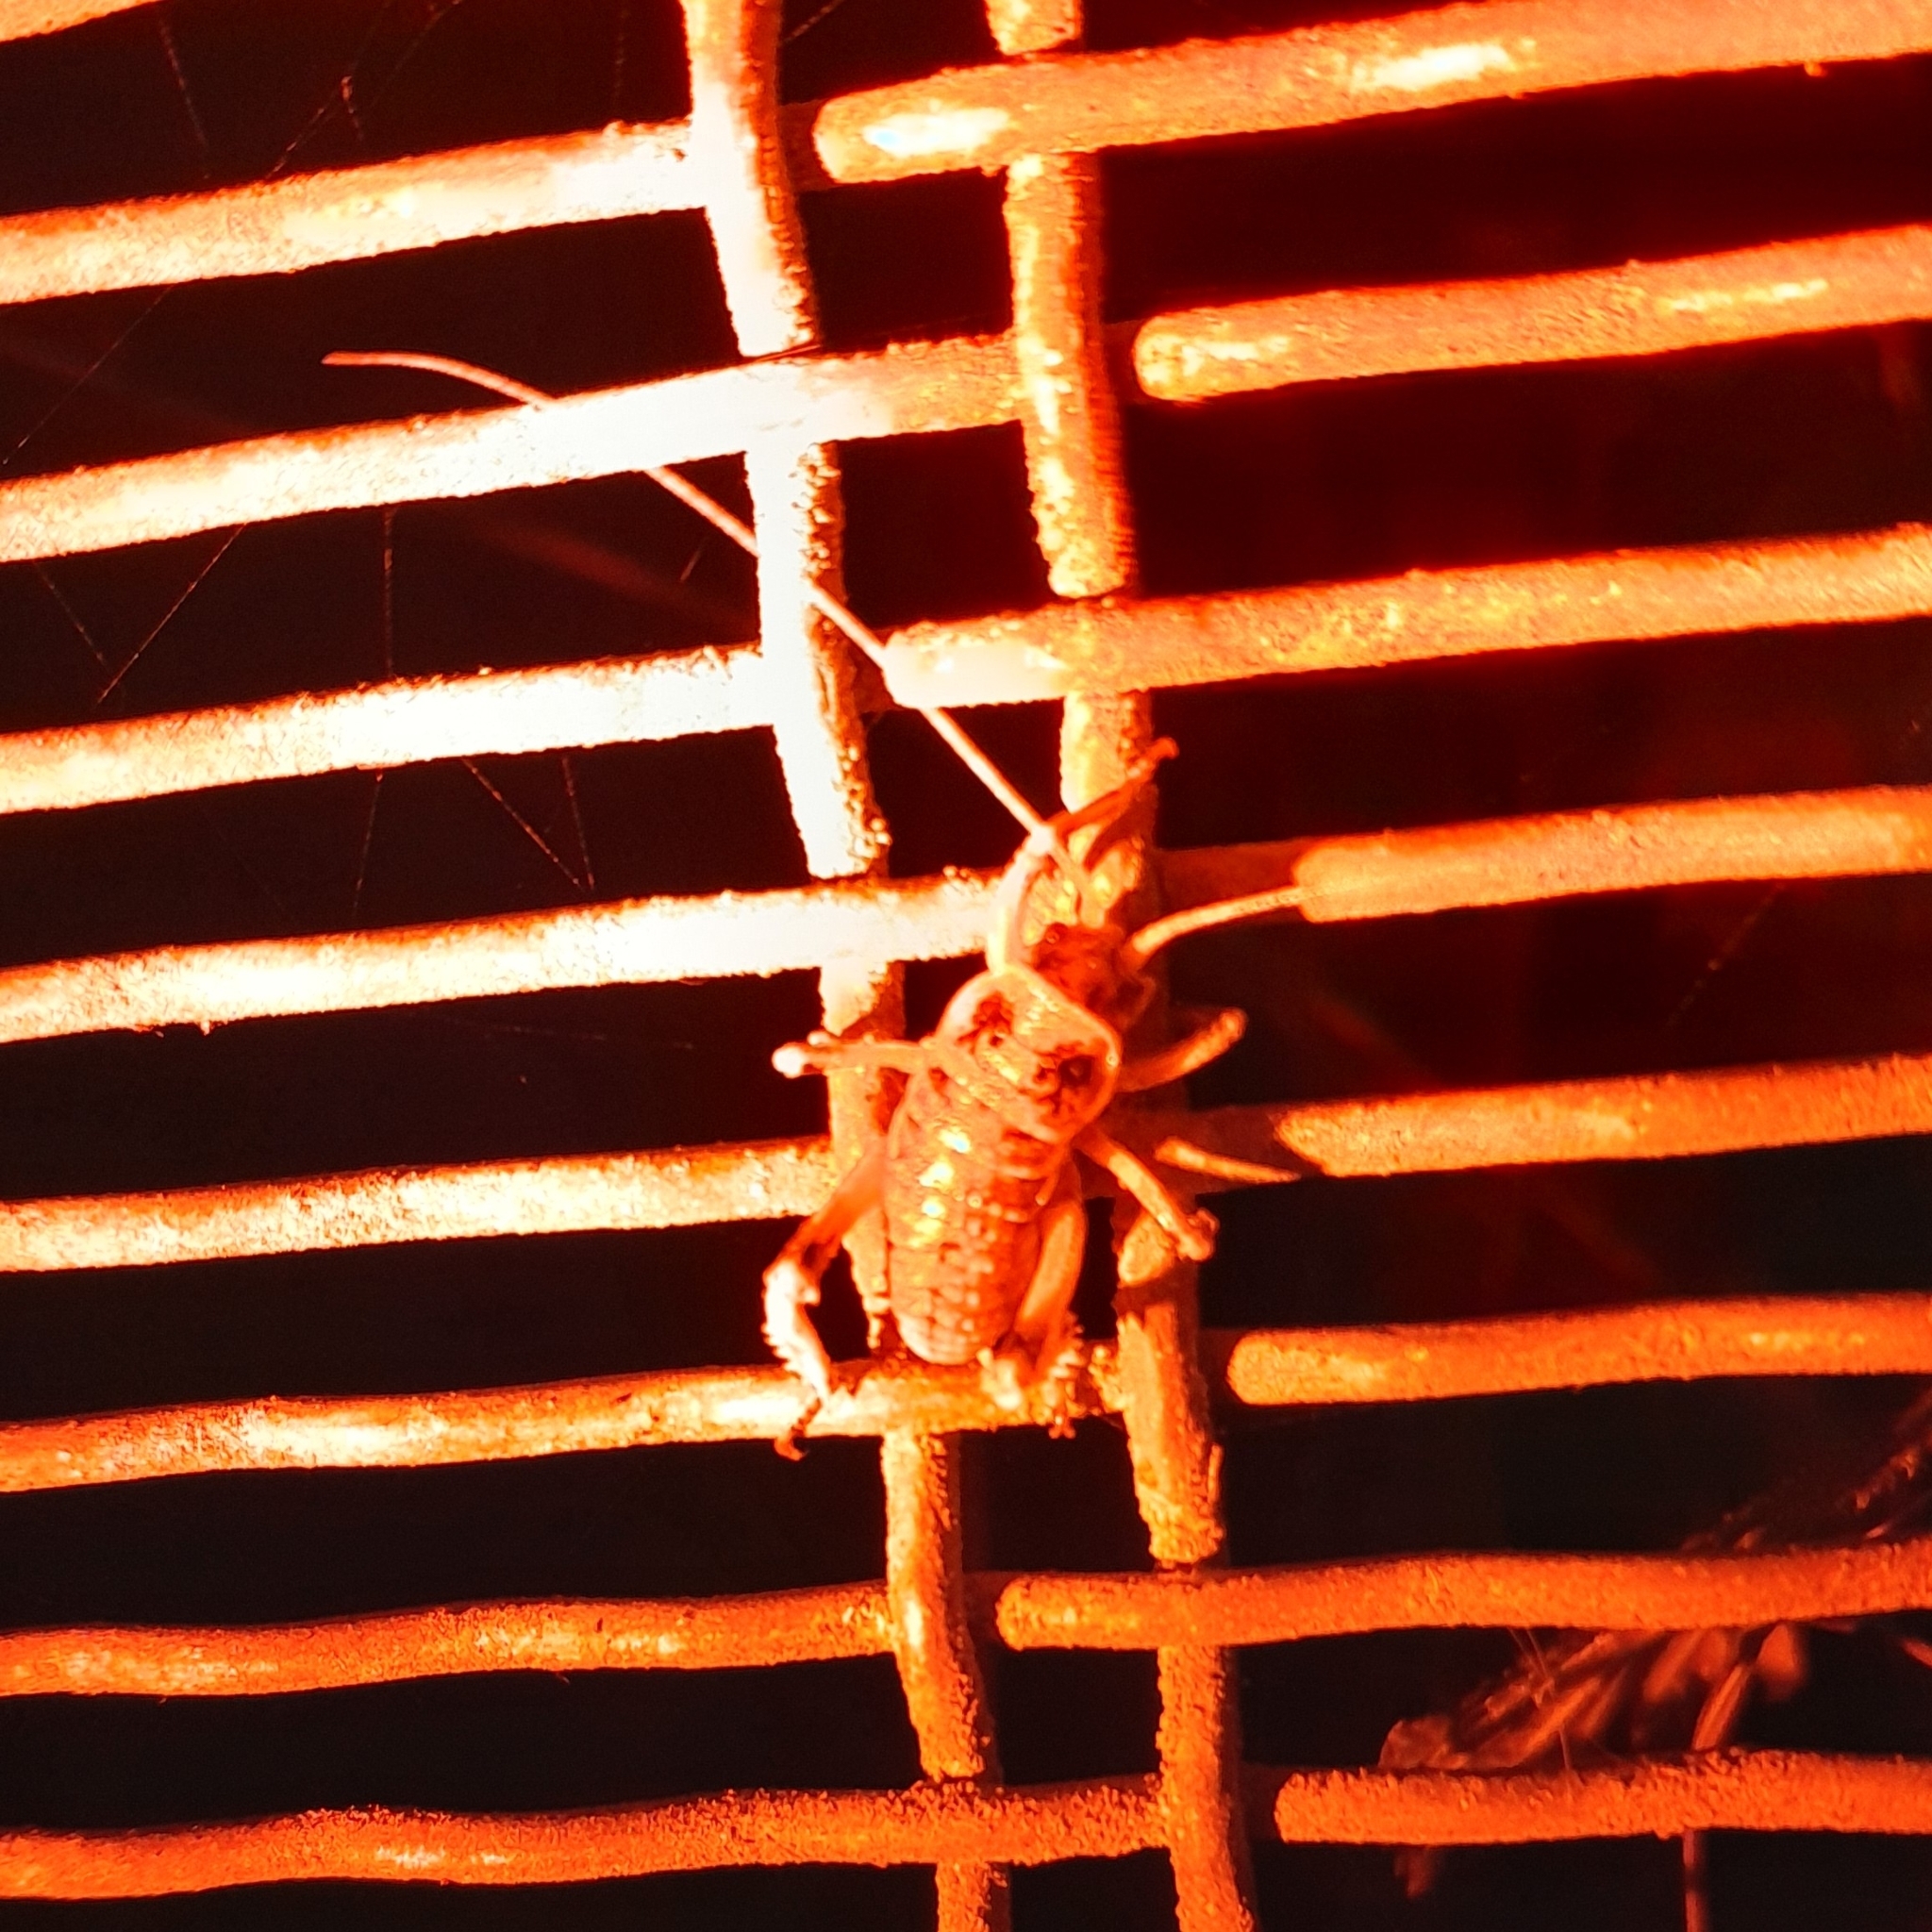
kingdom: Animalia
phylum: Arthropoda
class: Insecta
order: Orthoptera
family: Anostostomatidae
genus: Deinacrida
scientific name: Deinacrida rugosa
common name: Stephens island weta
